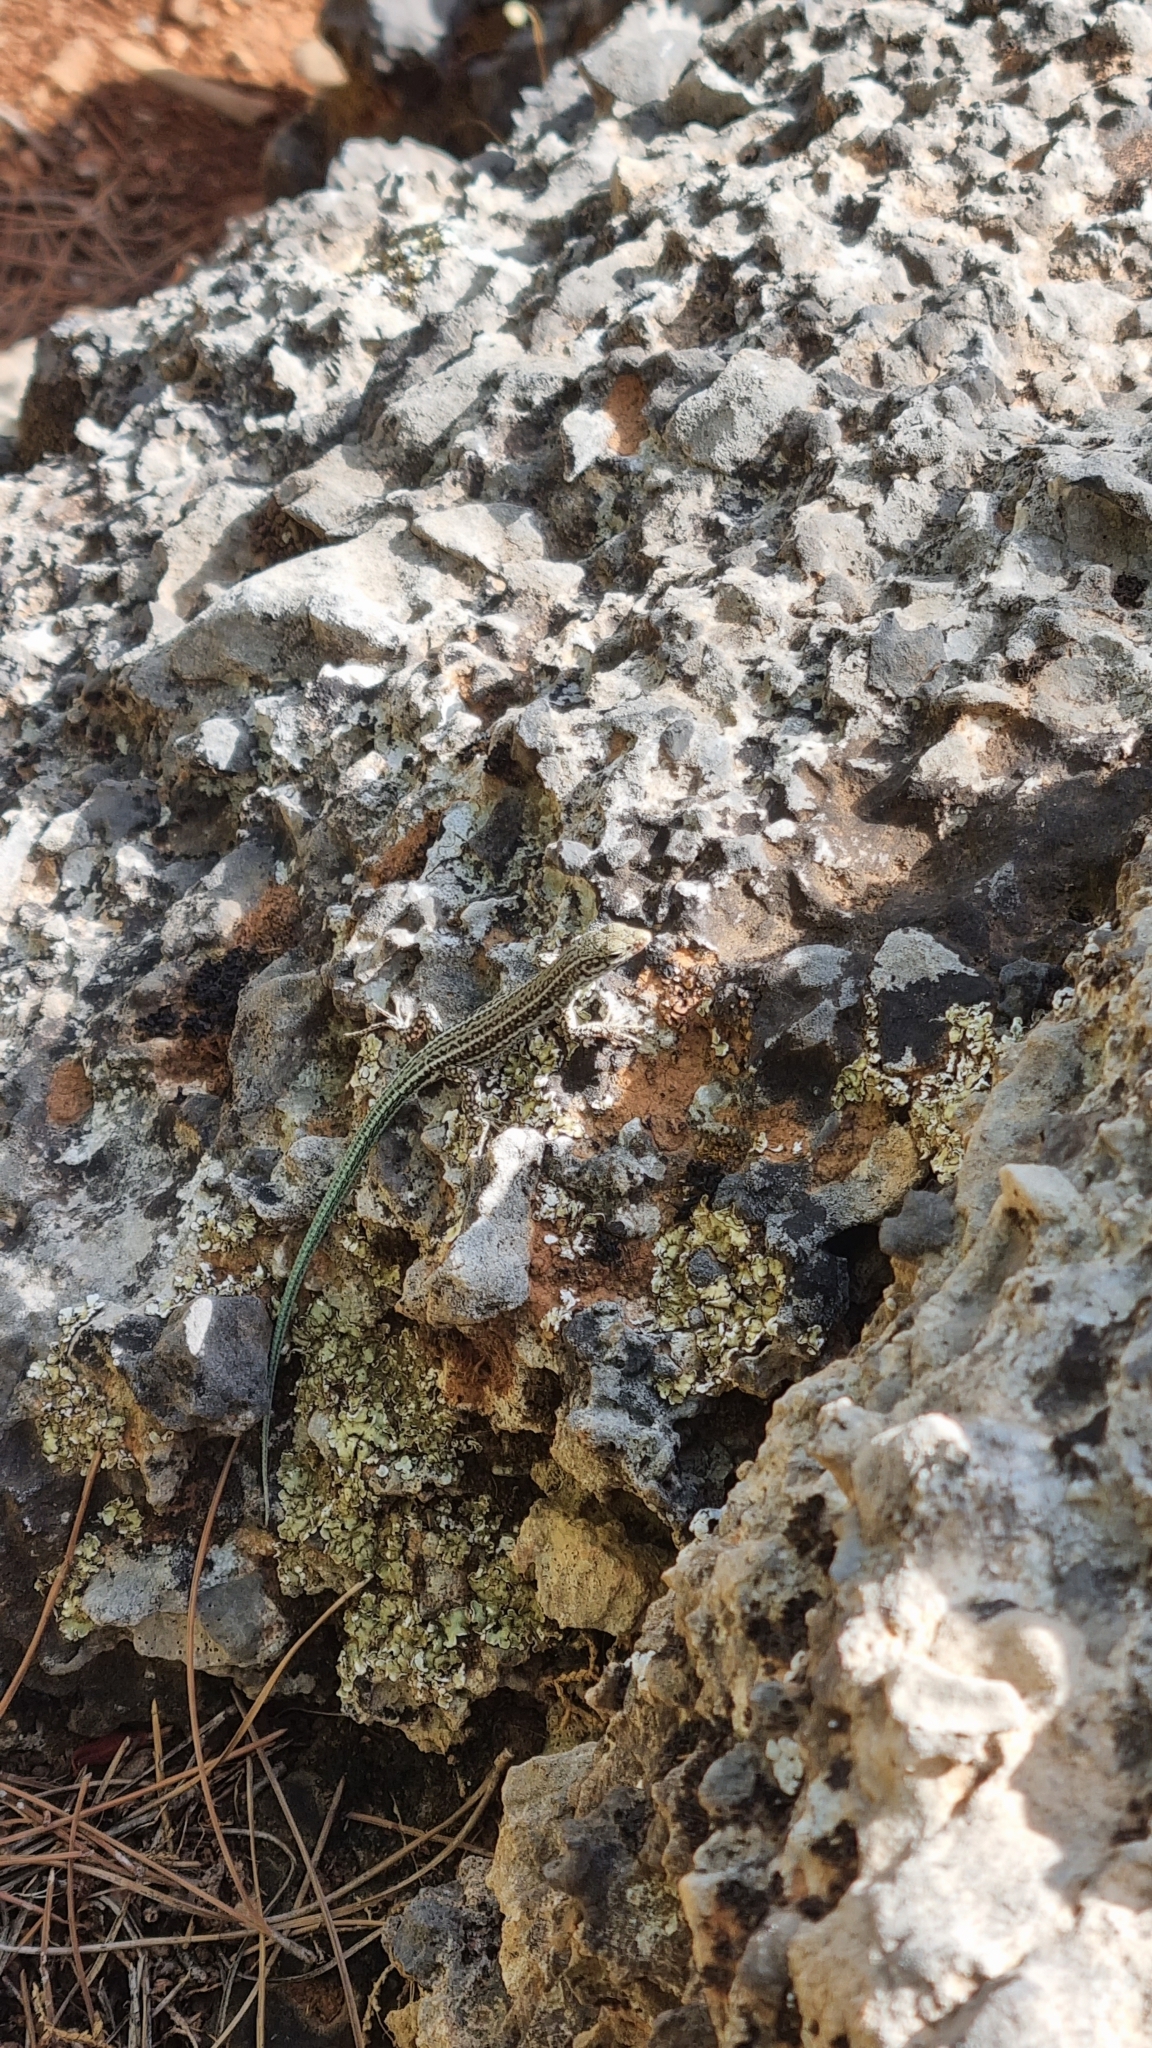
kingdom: Animalia
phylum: Chordata
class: Squamata
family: Lacertidae
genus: Podarcis
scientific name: Podarcis cretensis
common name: Cretan wall lizard
